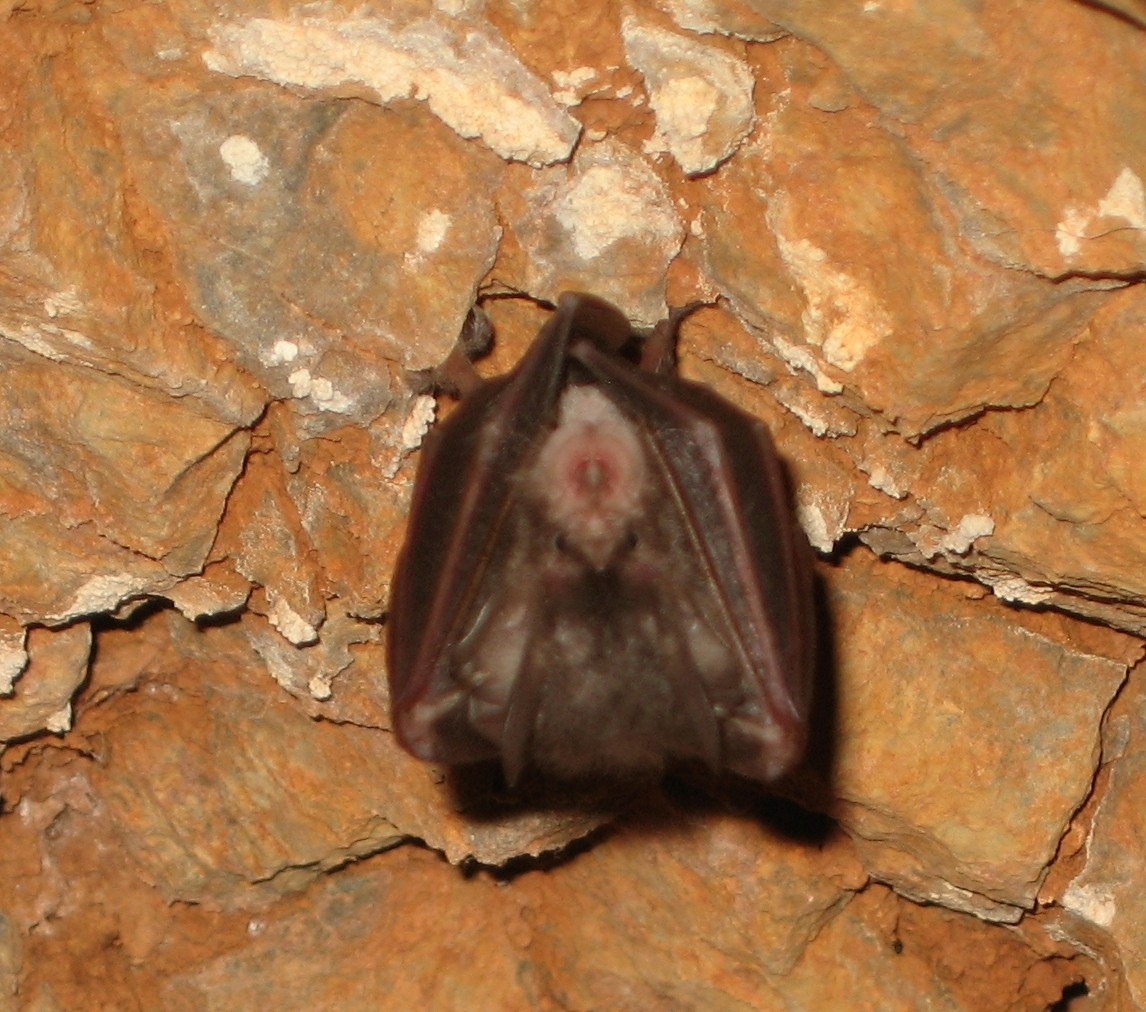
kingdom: Animalia
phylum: Chordata
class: Mammalia
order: Chiroptera
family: Rhinolophidae
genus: Rhinolophus
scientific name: Rhinolophus hipposideros
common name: Lesser horseshoe bat
